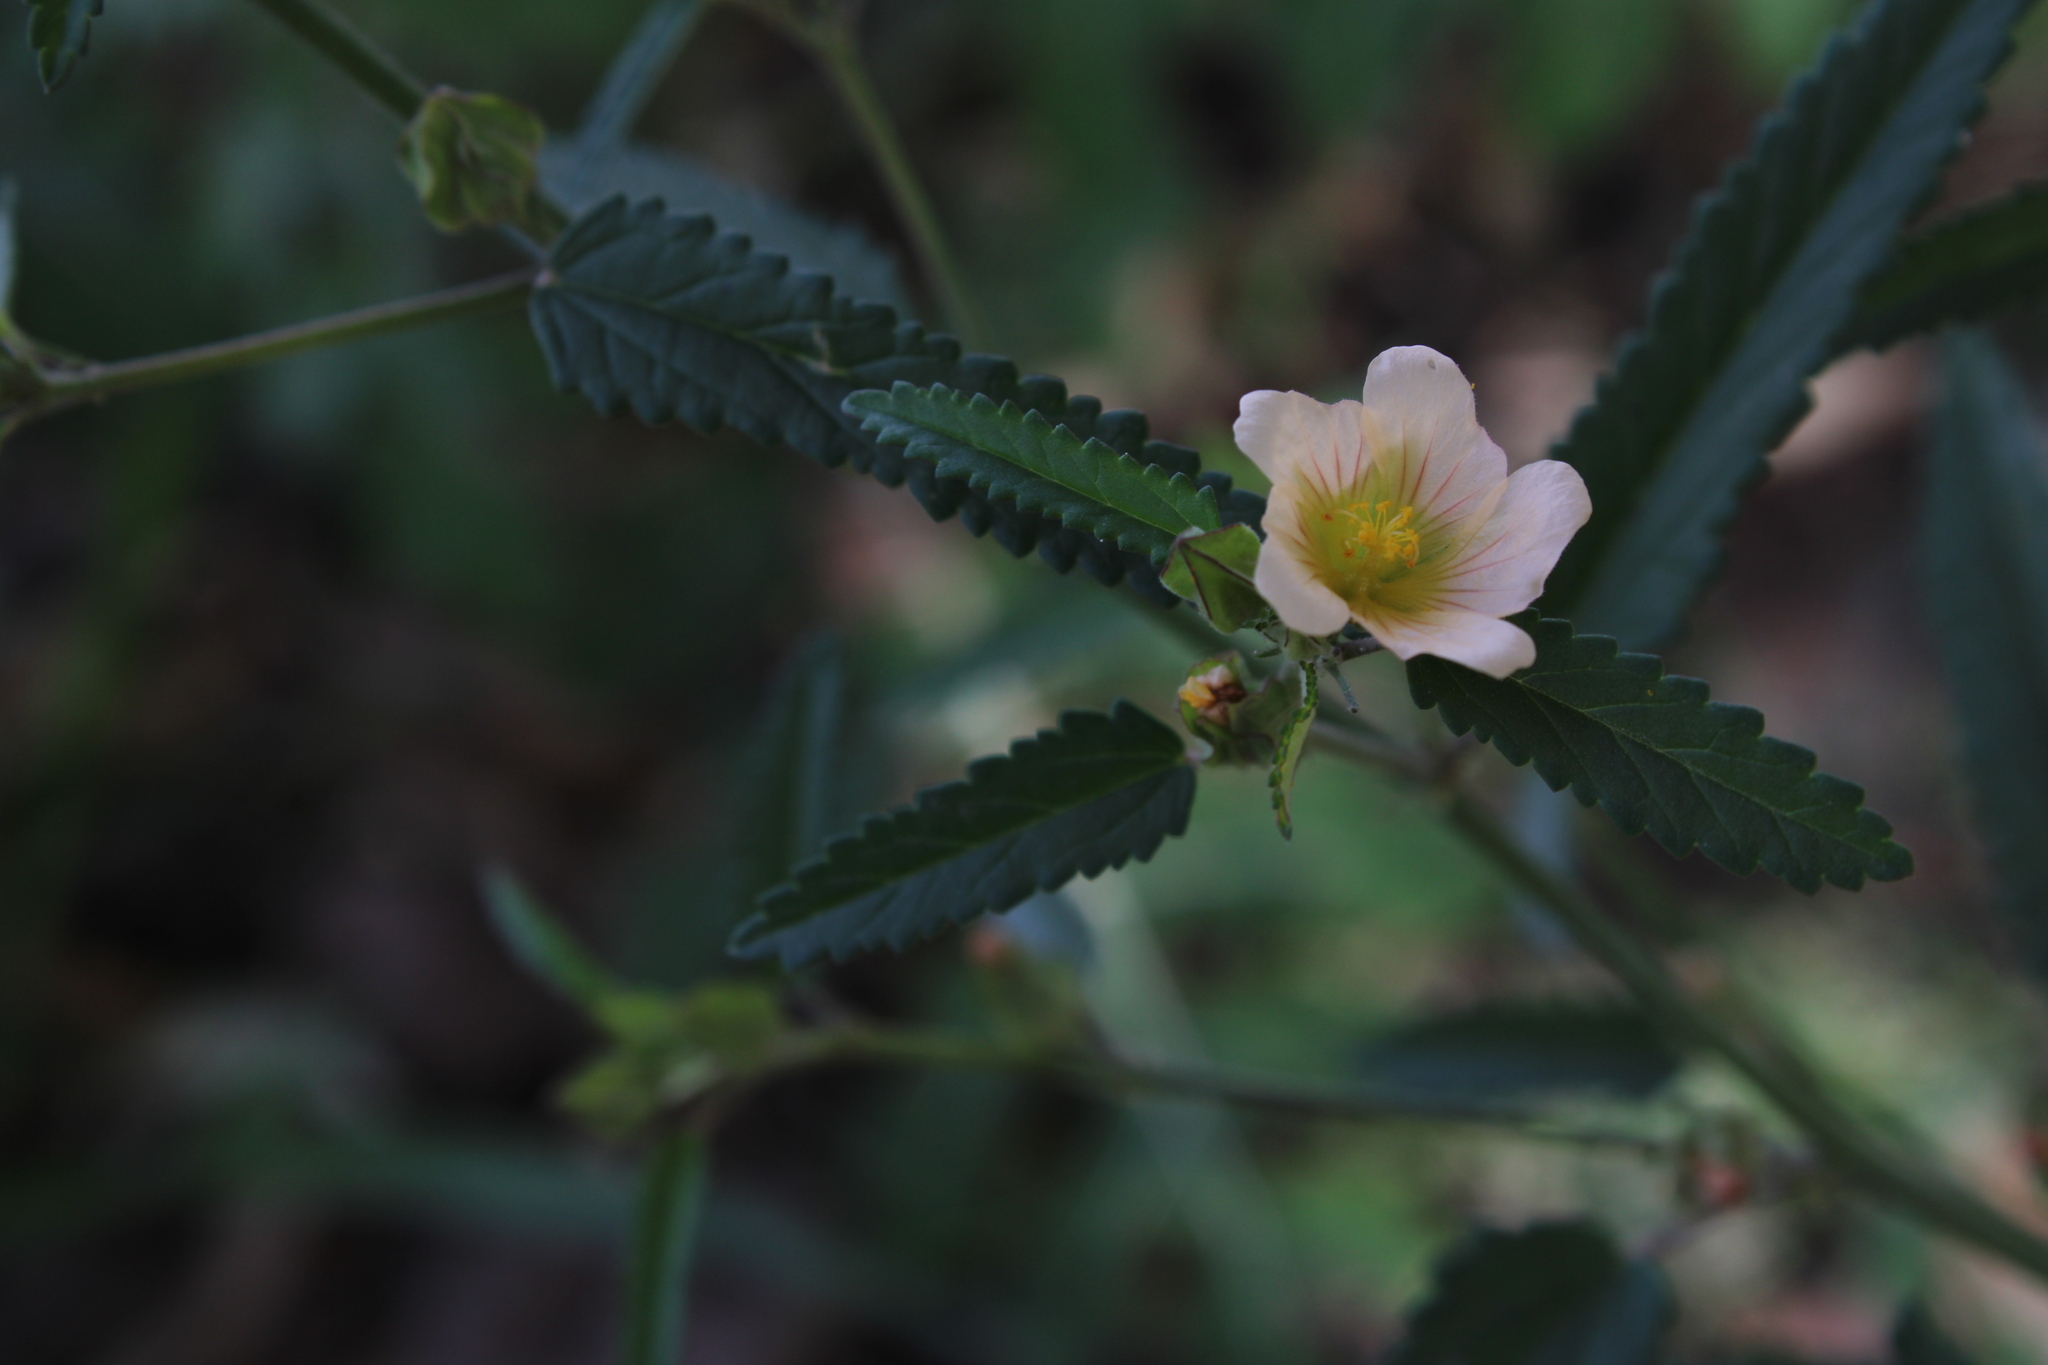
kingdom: Plantae
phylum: Tracheophyta
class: Magnoliopsida
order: Malvales
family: Malvaceae
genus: Sida
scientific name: Sida rhombifolia
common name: Queensland-hemp
